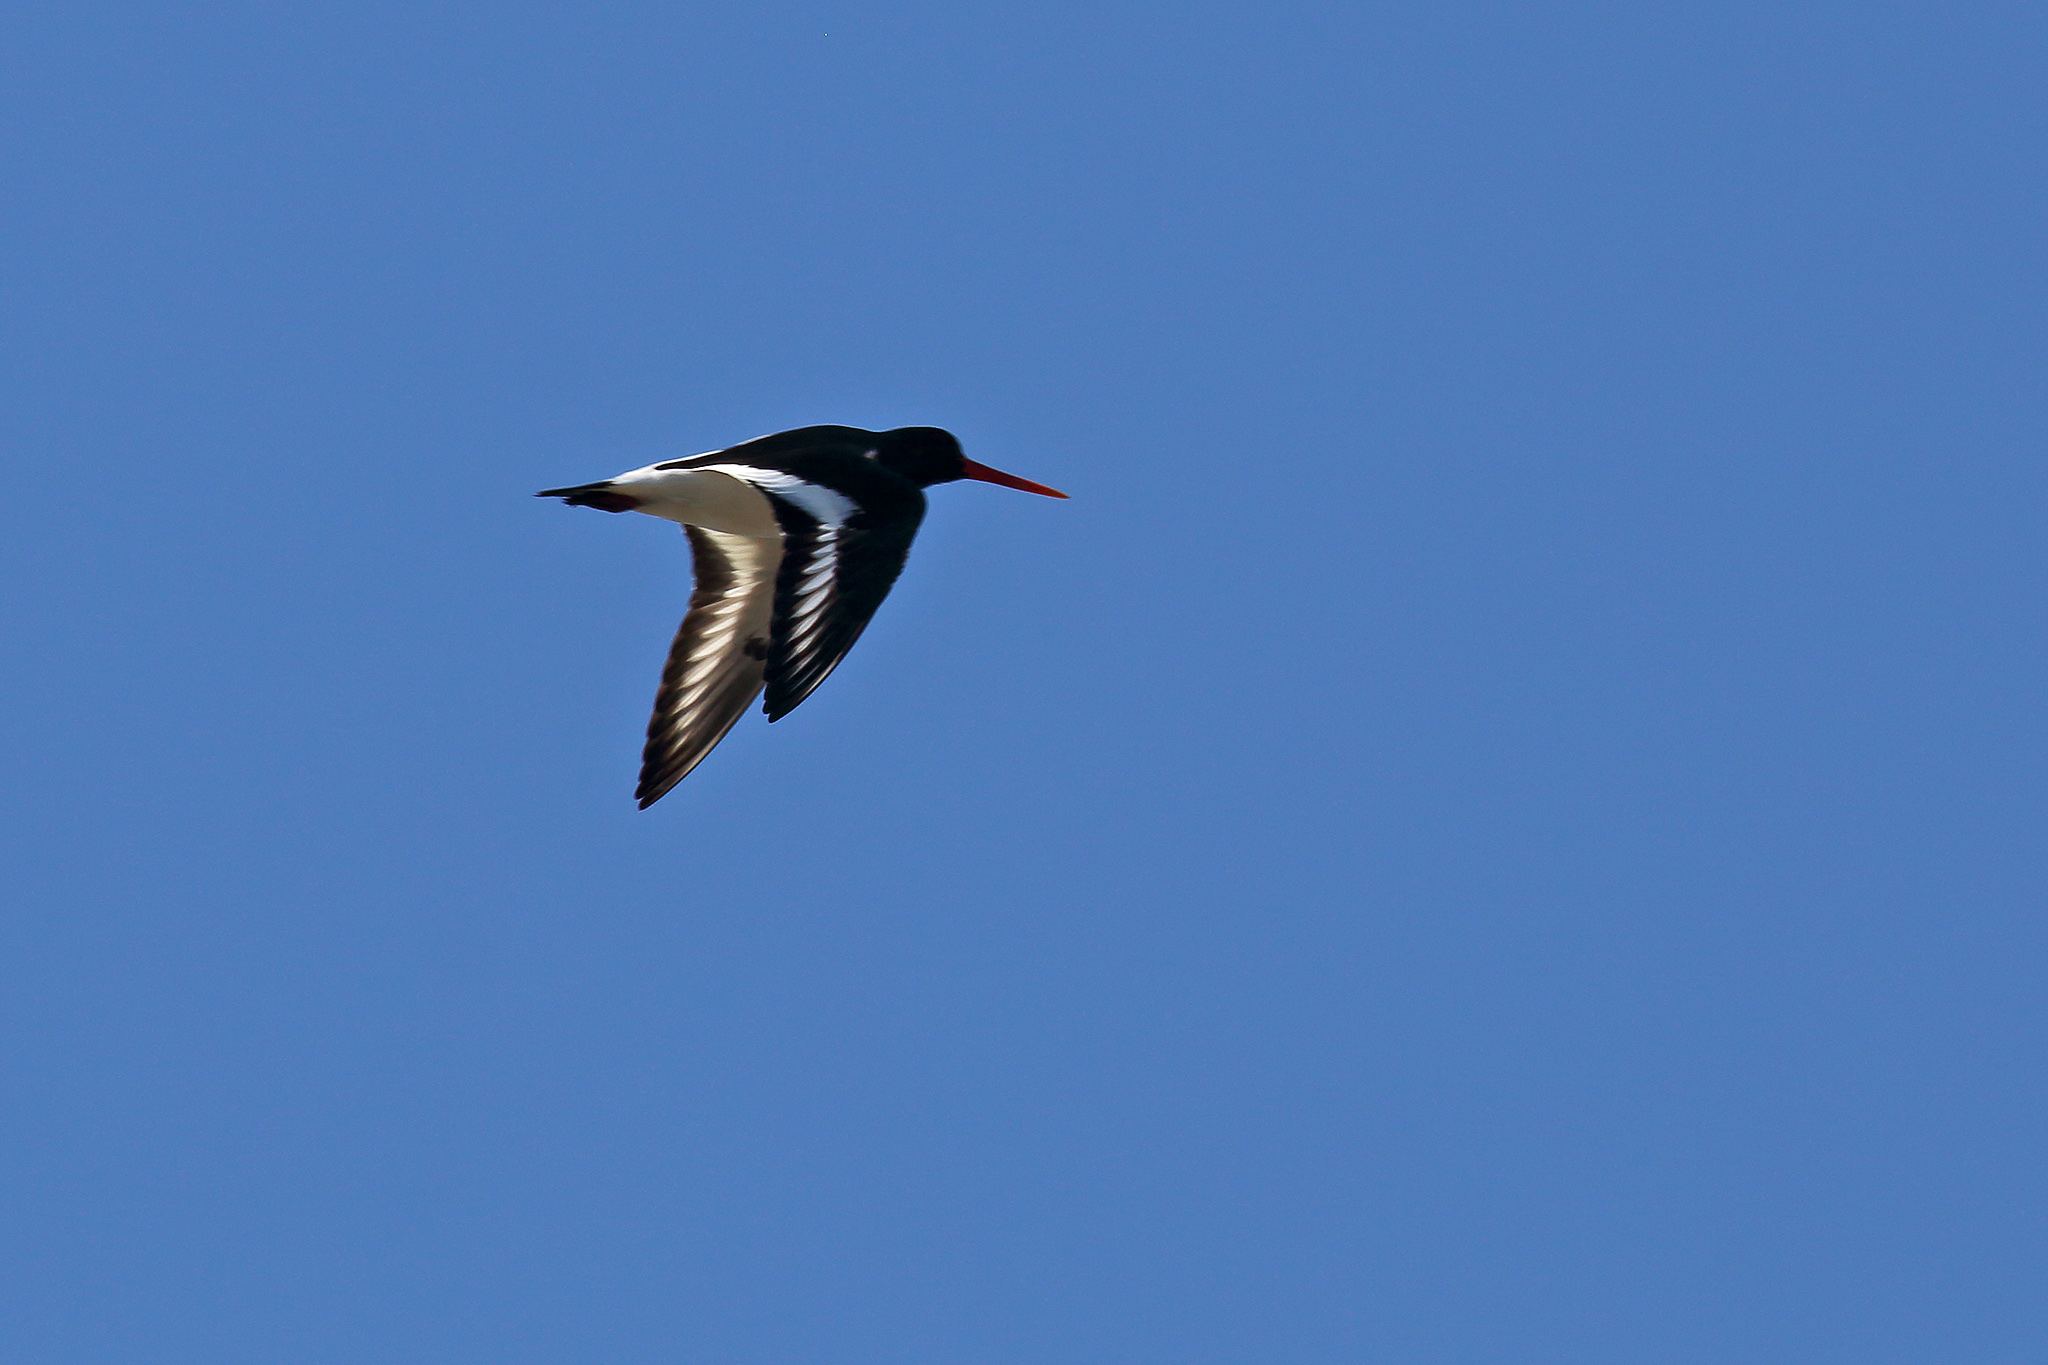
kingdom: Animalia
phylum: Chordata
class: Aves
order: Charadriiformes
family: Haematopodidae
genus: Haematopus
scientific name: Haematopus ostralegus
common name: Eurasian oystercatcher
